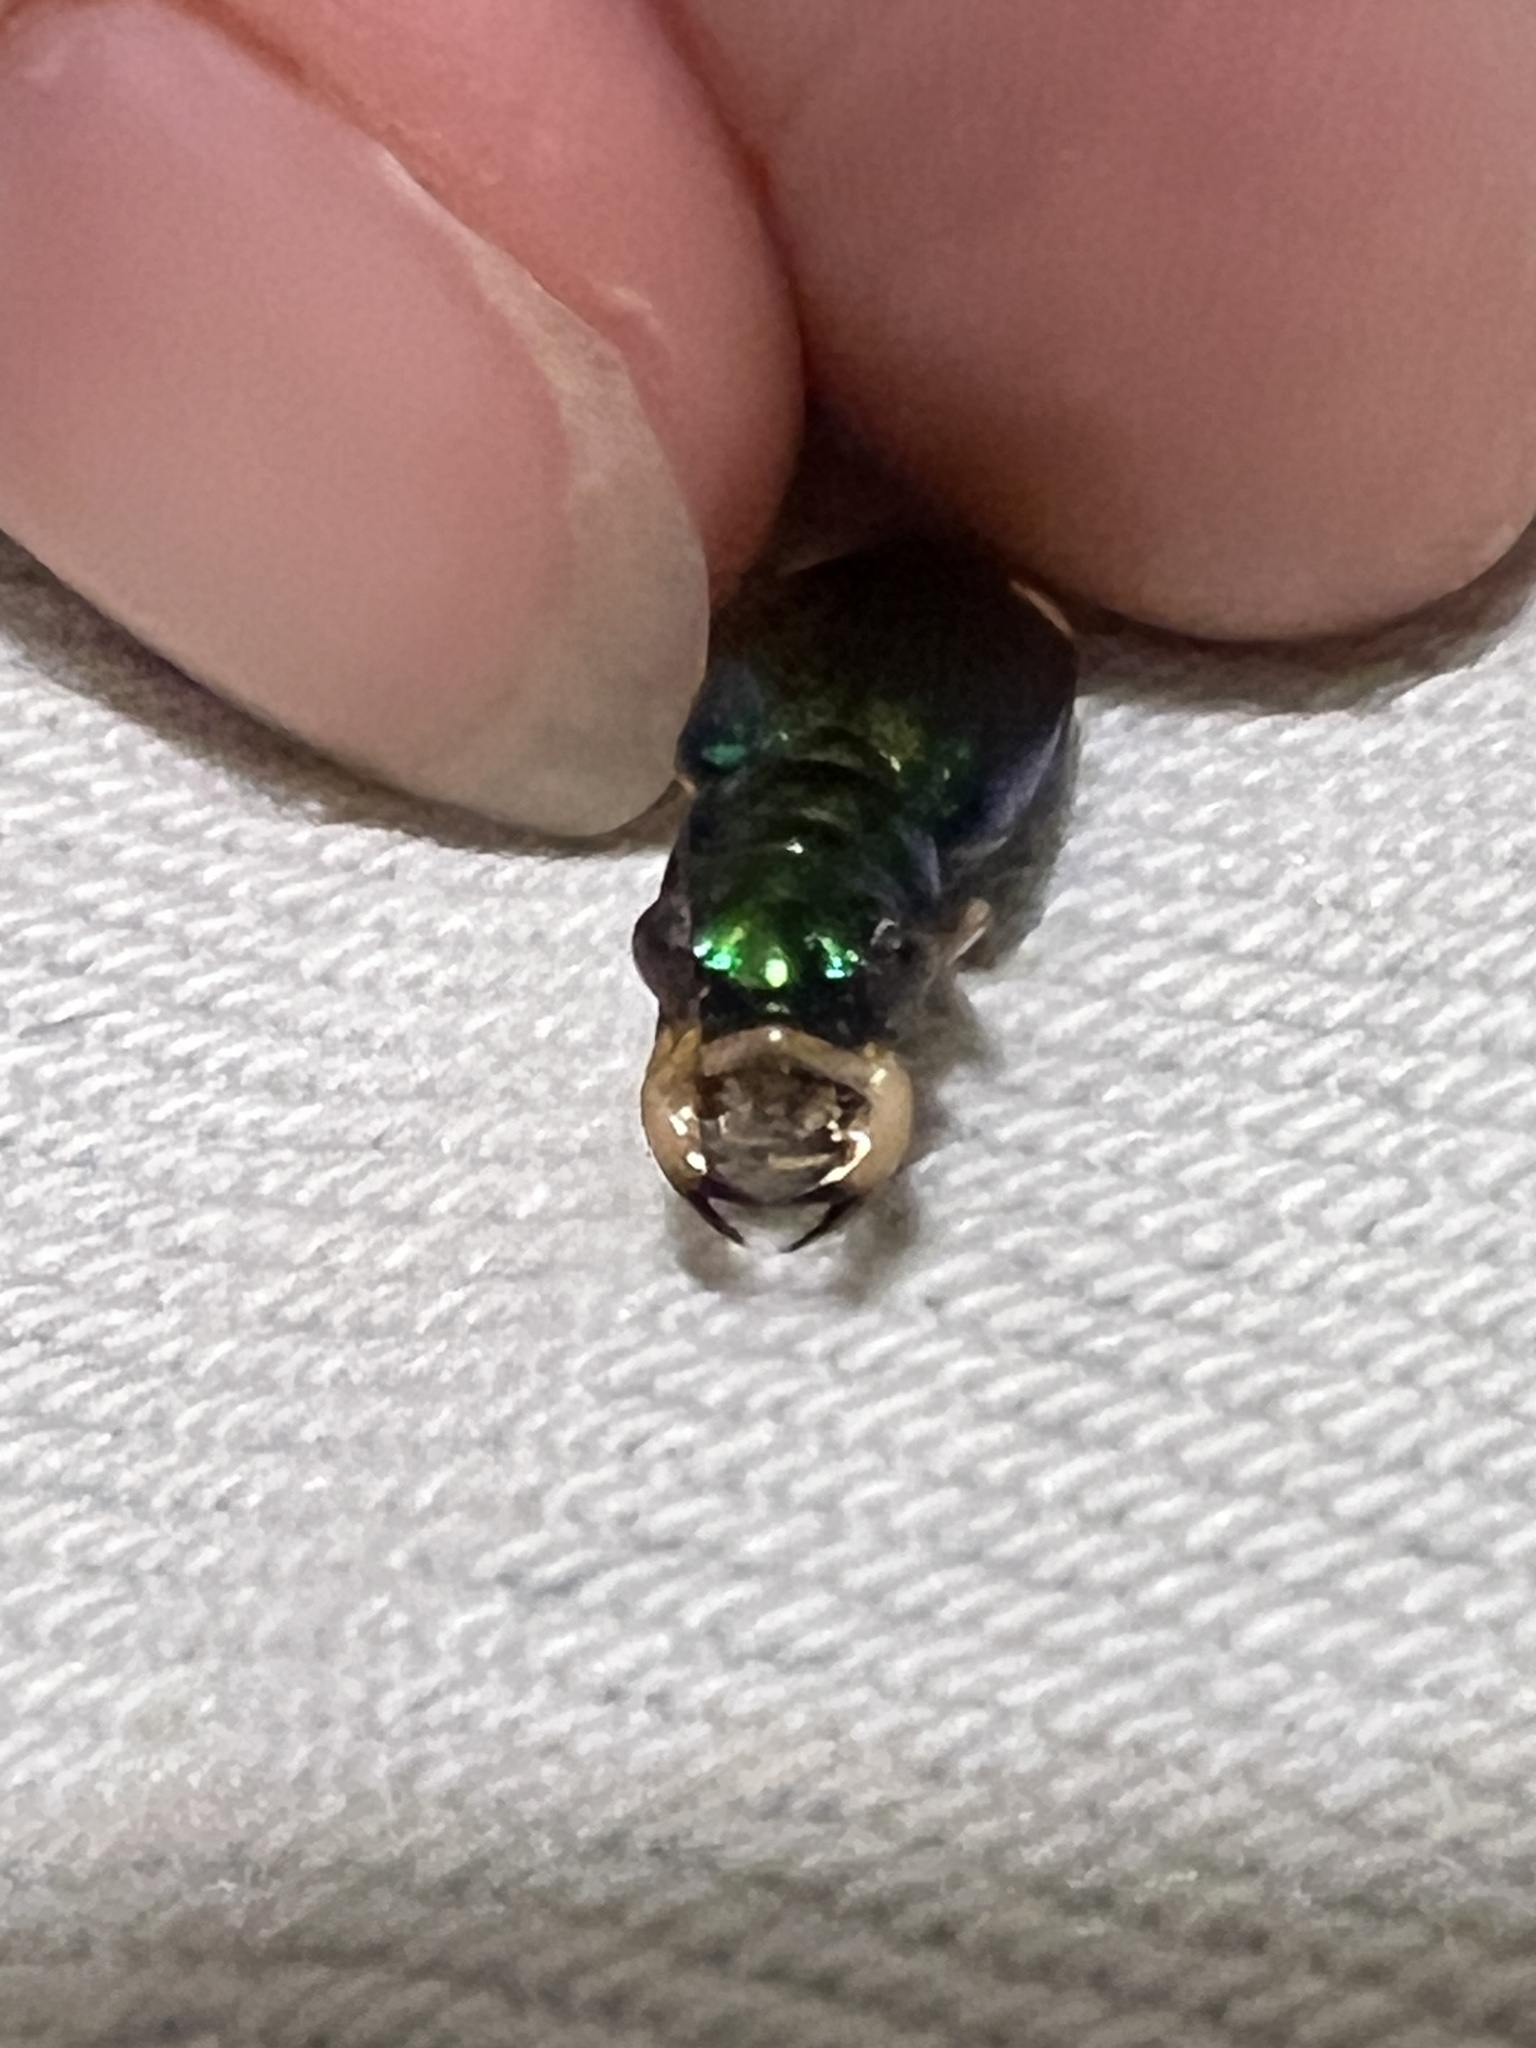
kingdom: Animalia
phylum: Arthropoda
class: Insecta
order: Coleoptera
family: Carabidae
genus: Tetracha
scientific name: Tetracha carolina
